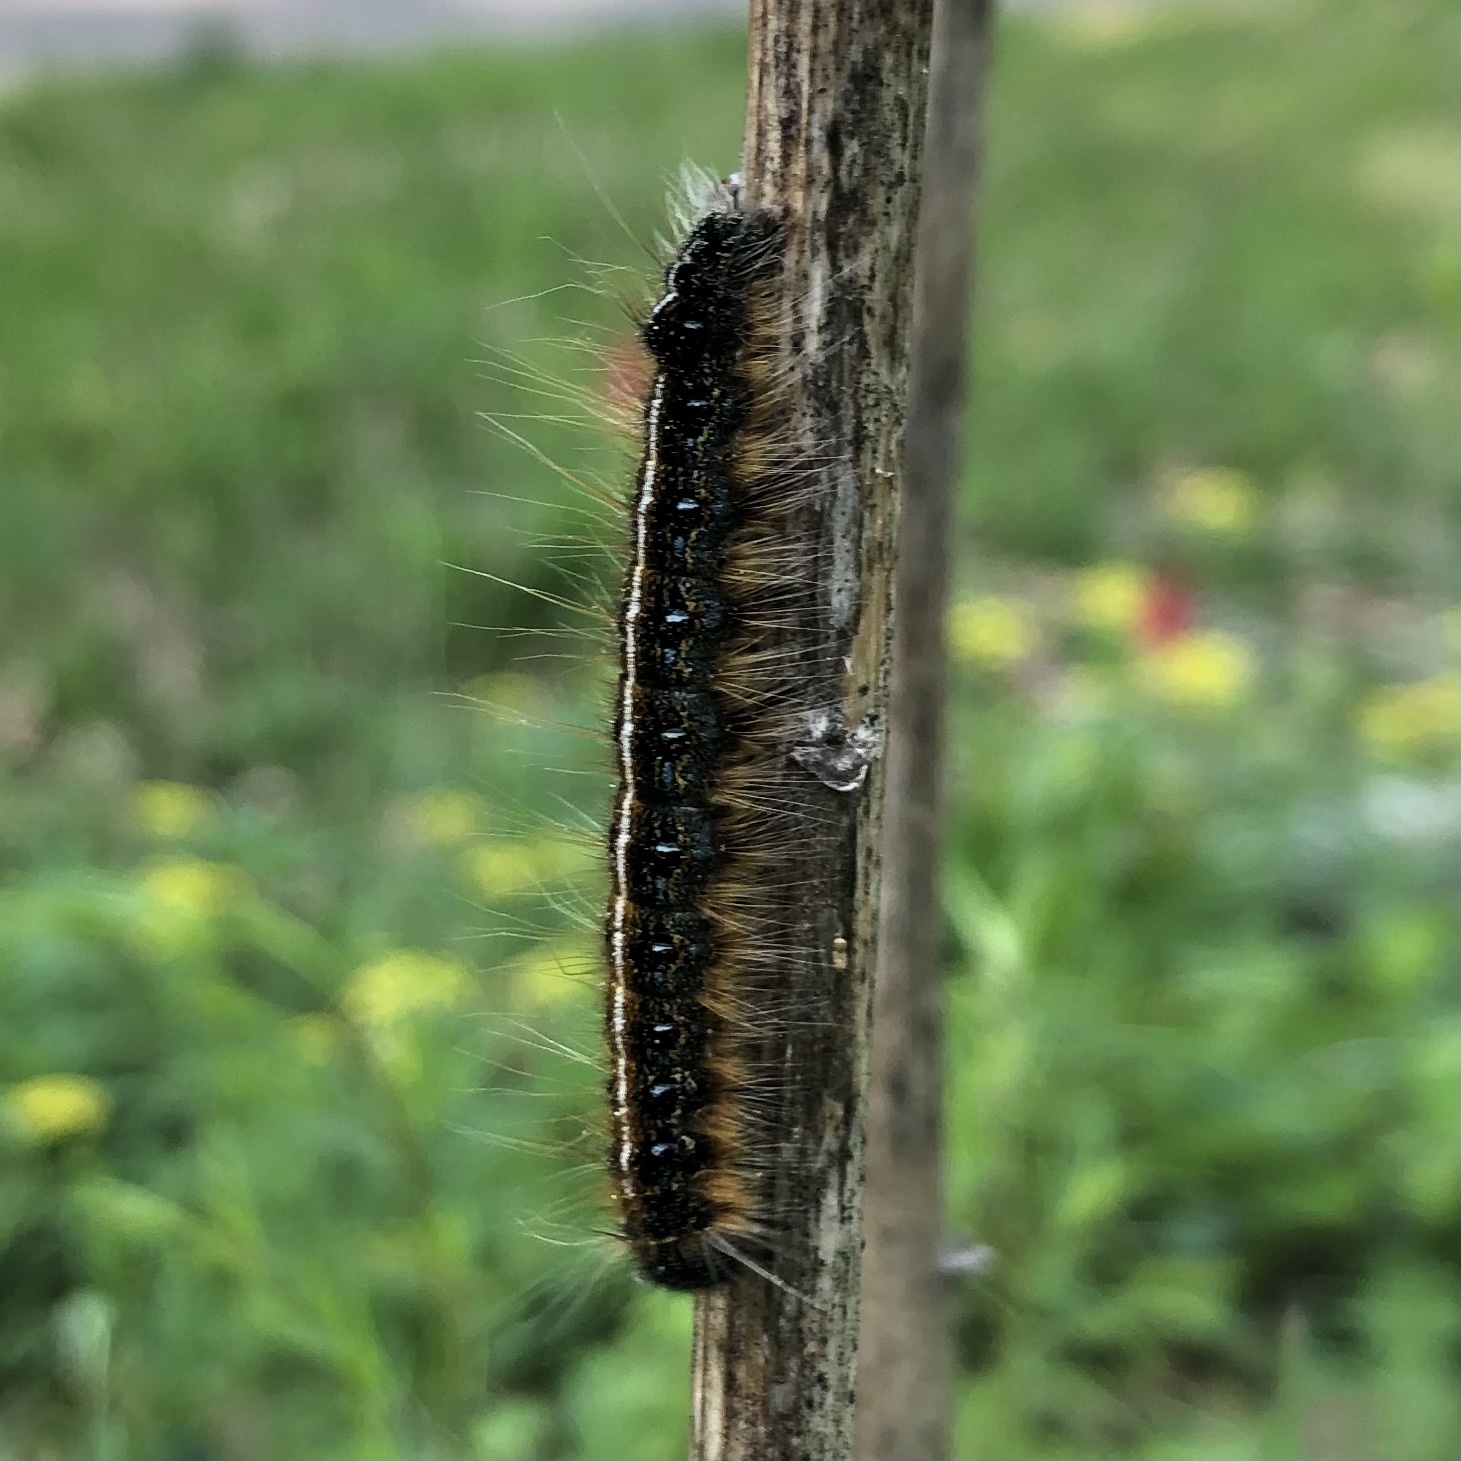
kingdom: Animalia
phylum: Arthropoda
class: Insecta
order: Lepidoptera
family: Lasiocampidae
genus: Malacosoma
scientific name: Malacosoma americana
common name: Eastern tent caterpillar moth
